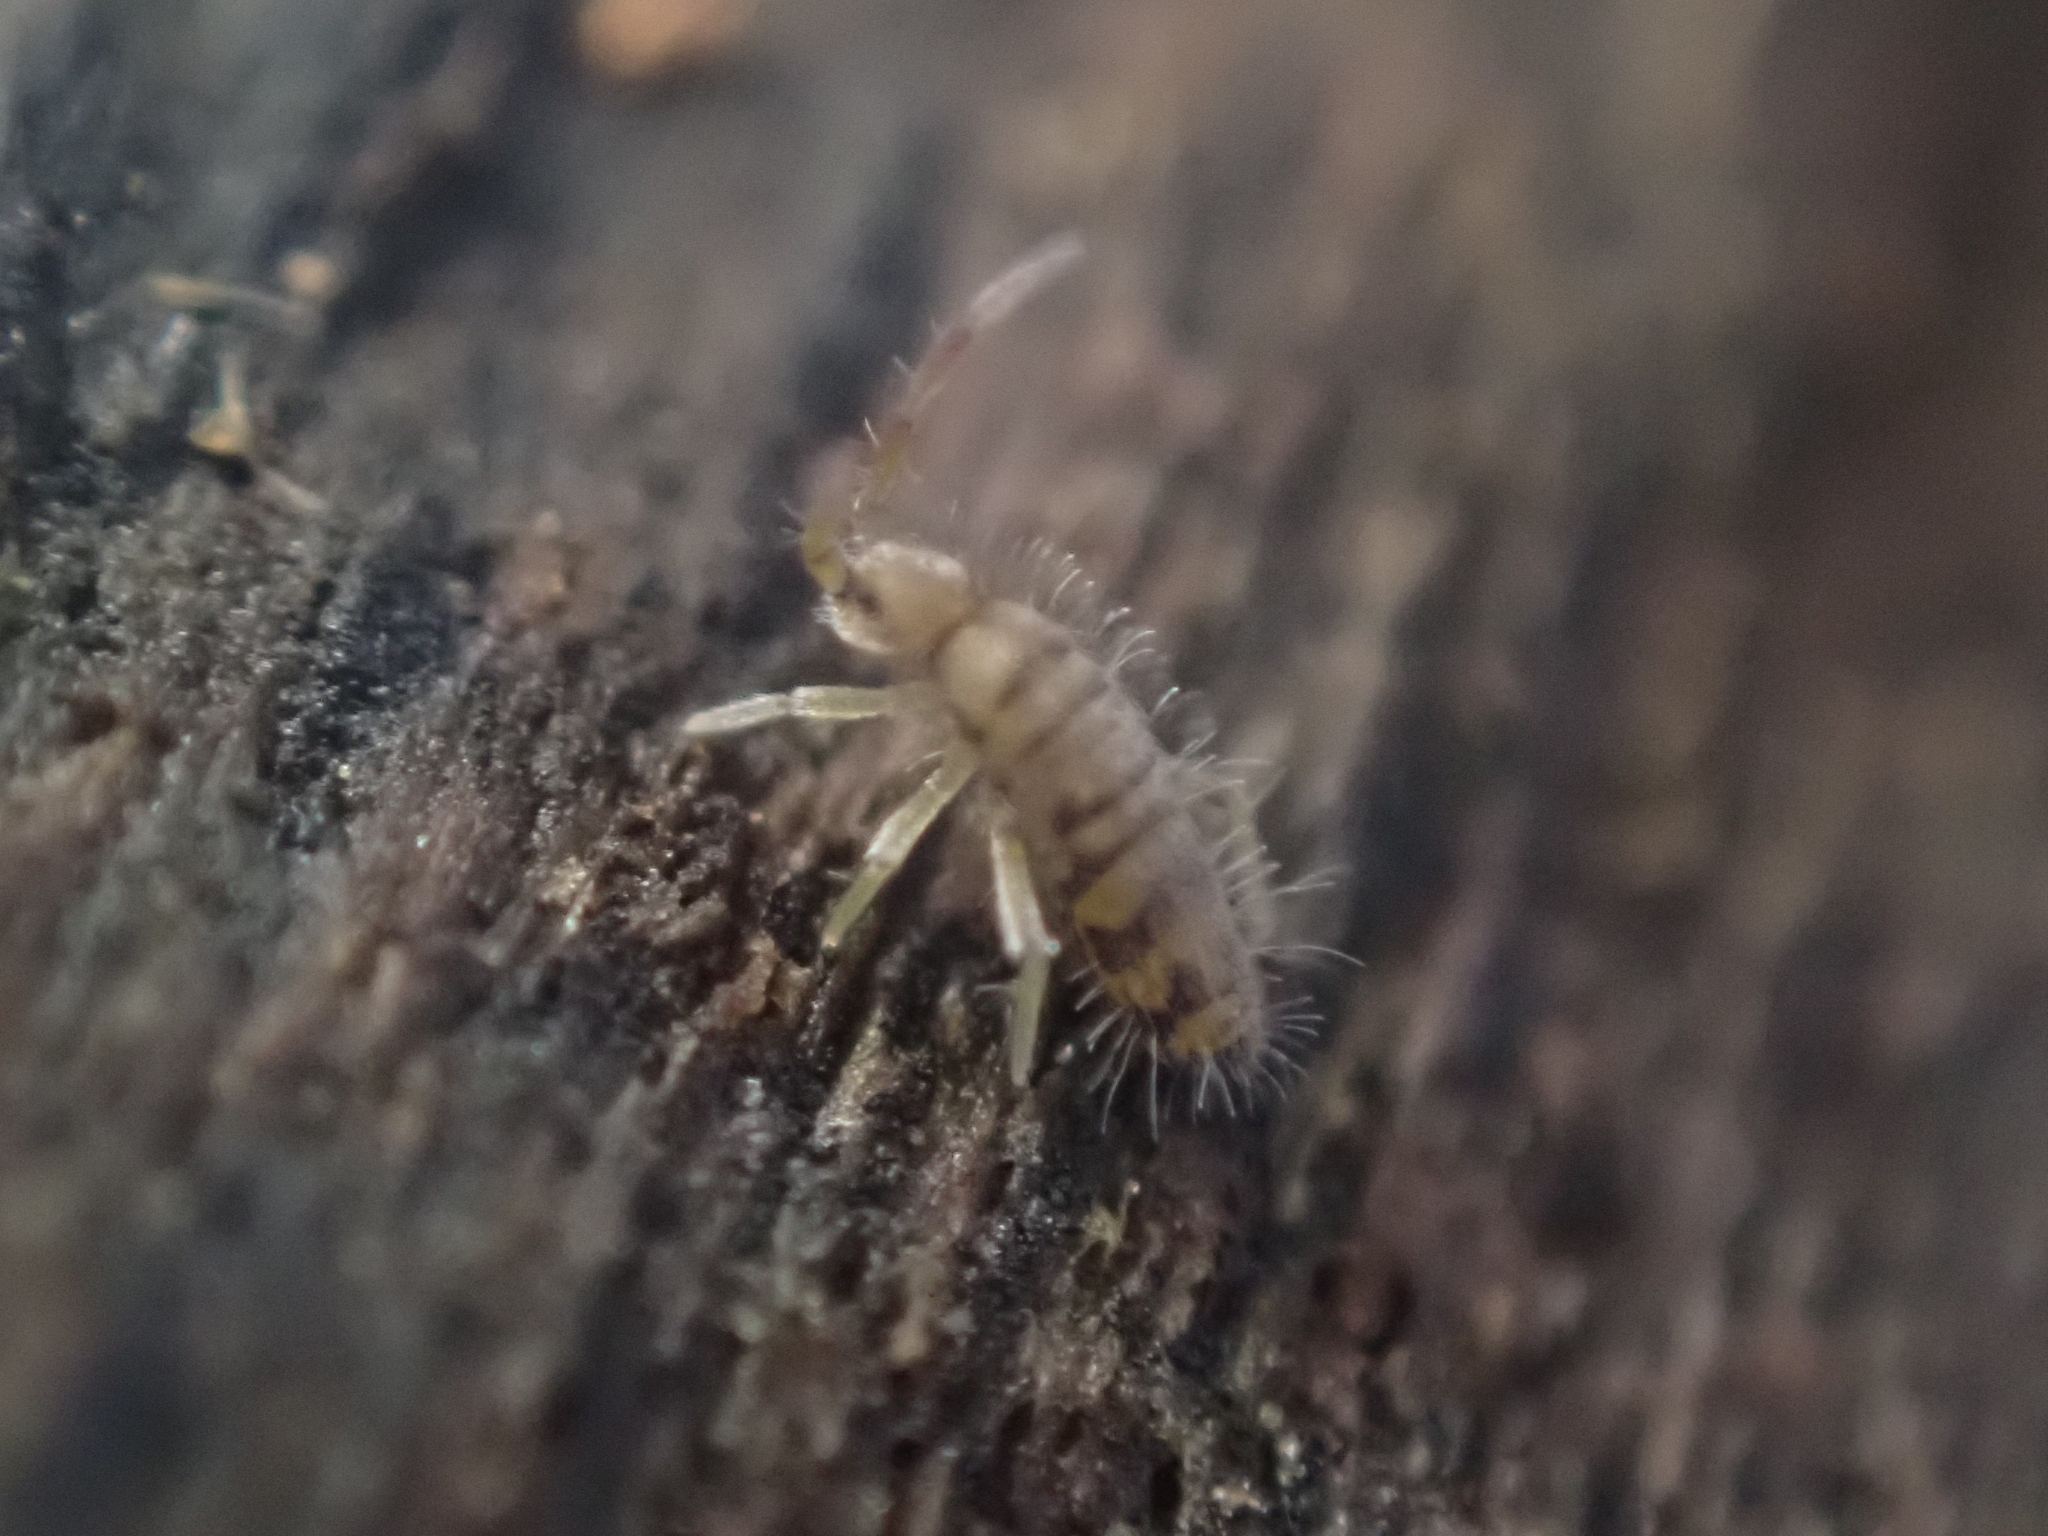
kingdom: Animalia
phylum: Arthropoda
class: Collembola
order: Entomobryomorpha
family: Entomobryidae
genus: Entomobrya
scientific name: Entomobrya multifasciata
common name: Springtail
